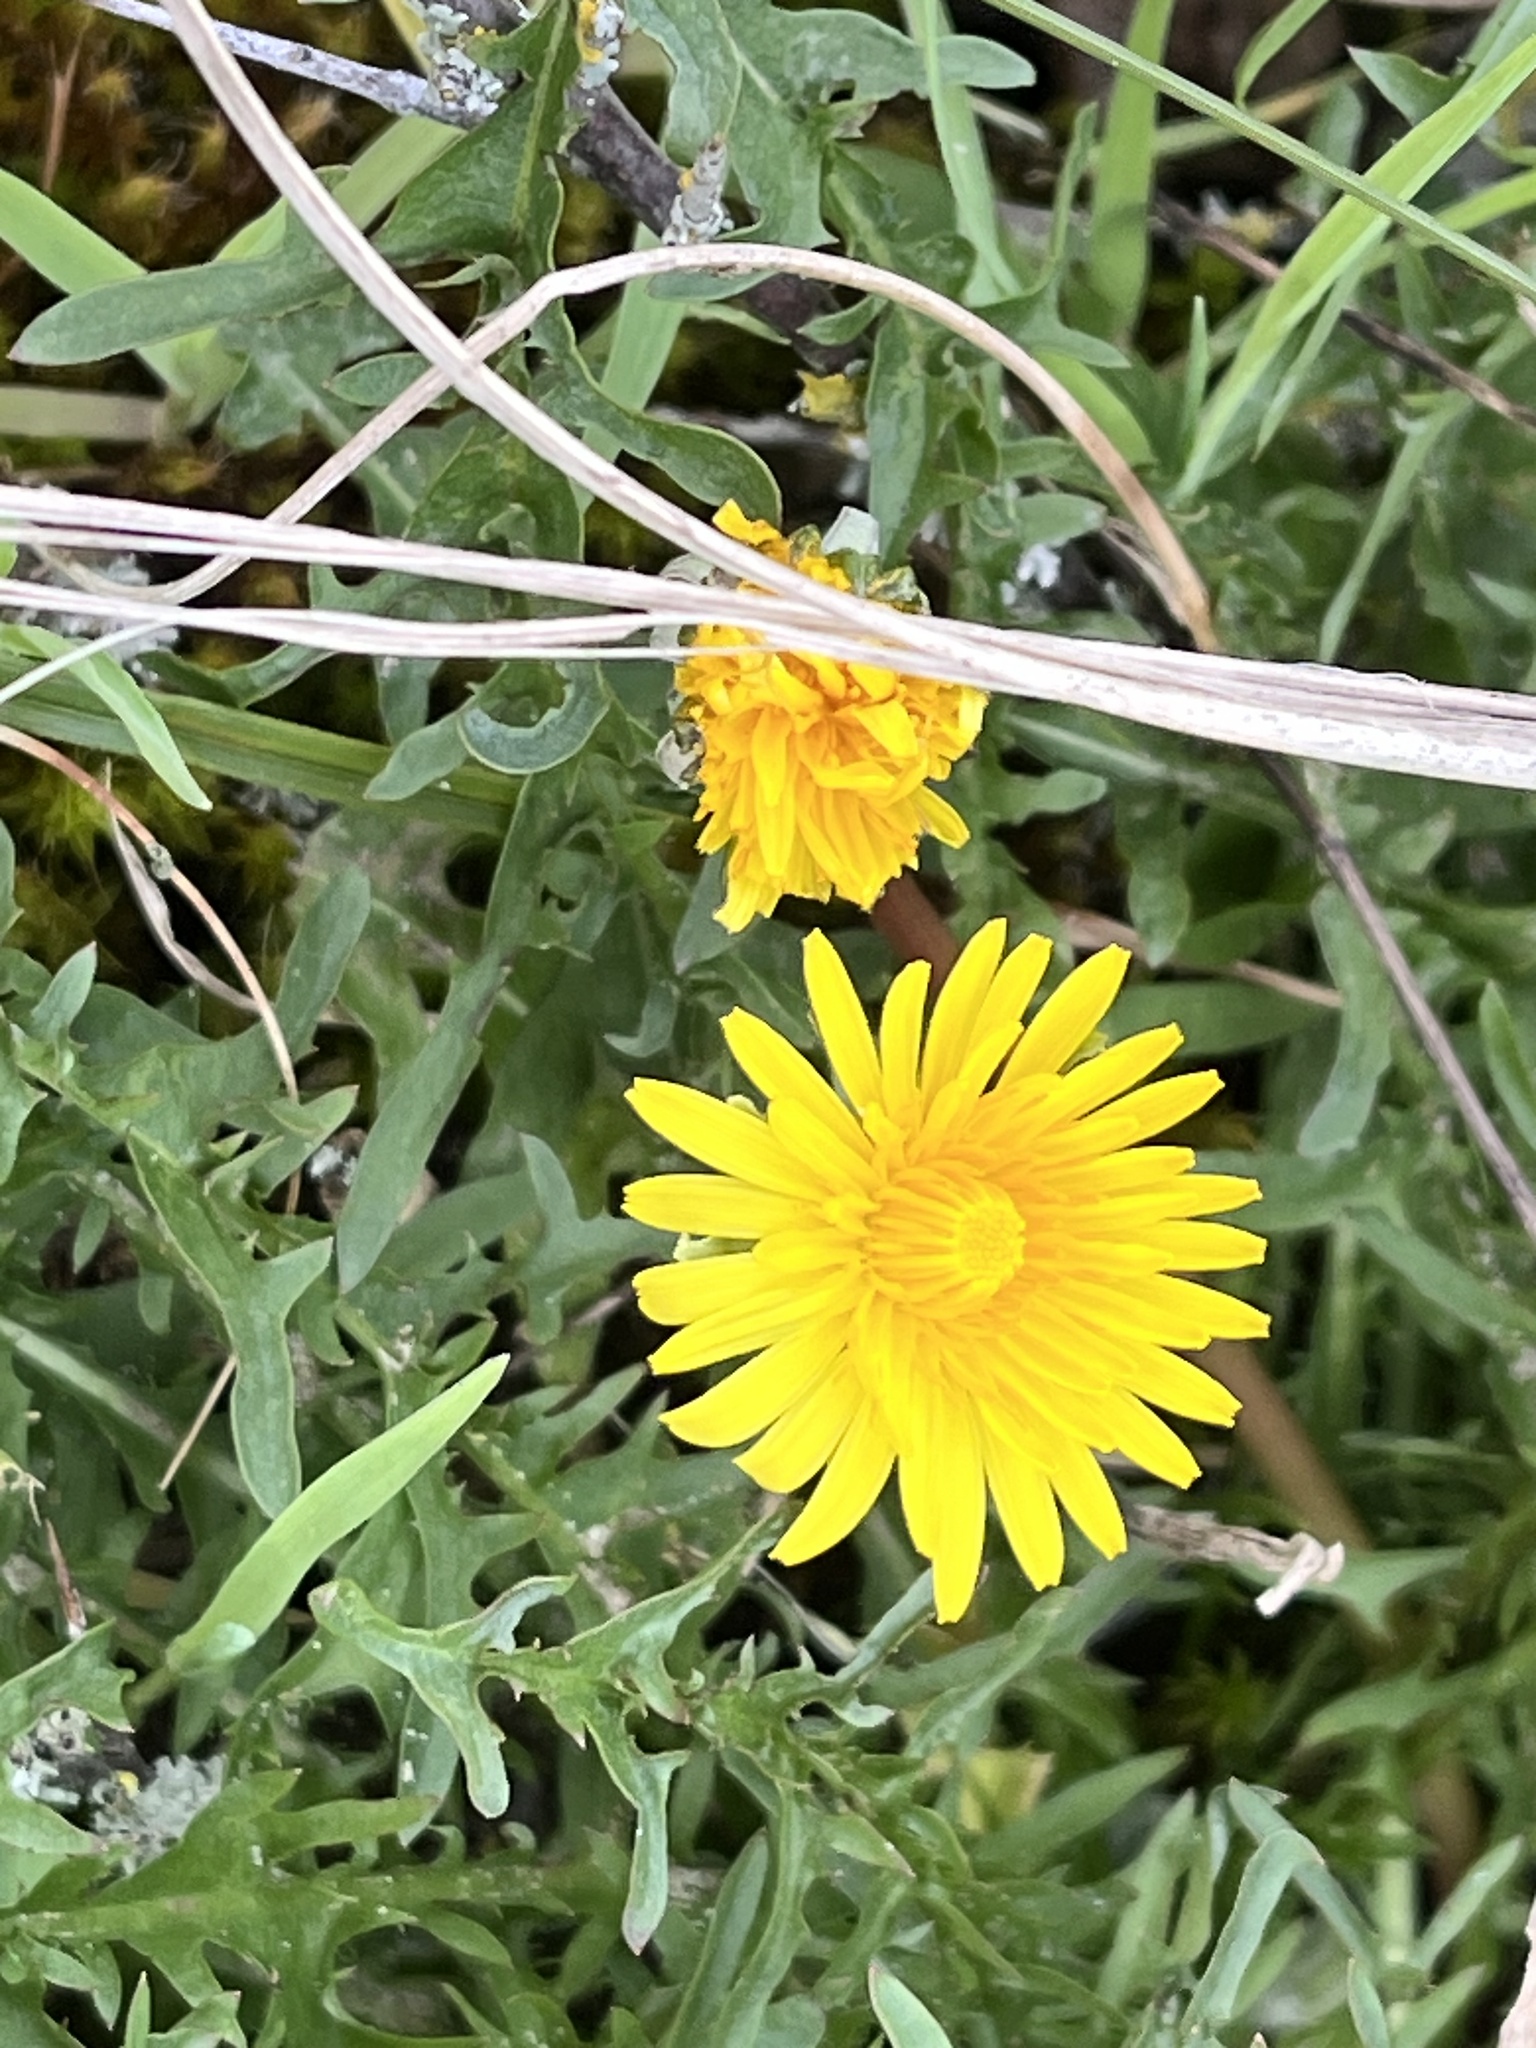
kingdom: Plantae
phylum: Tracheophyta
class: Magnoliopsida
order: Asterales
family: Asteraceae
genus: Taraxacum
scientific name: Taraxacum officinale
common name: Common dandelion
